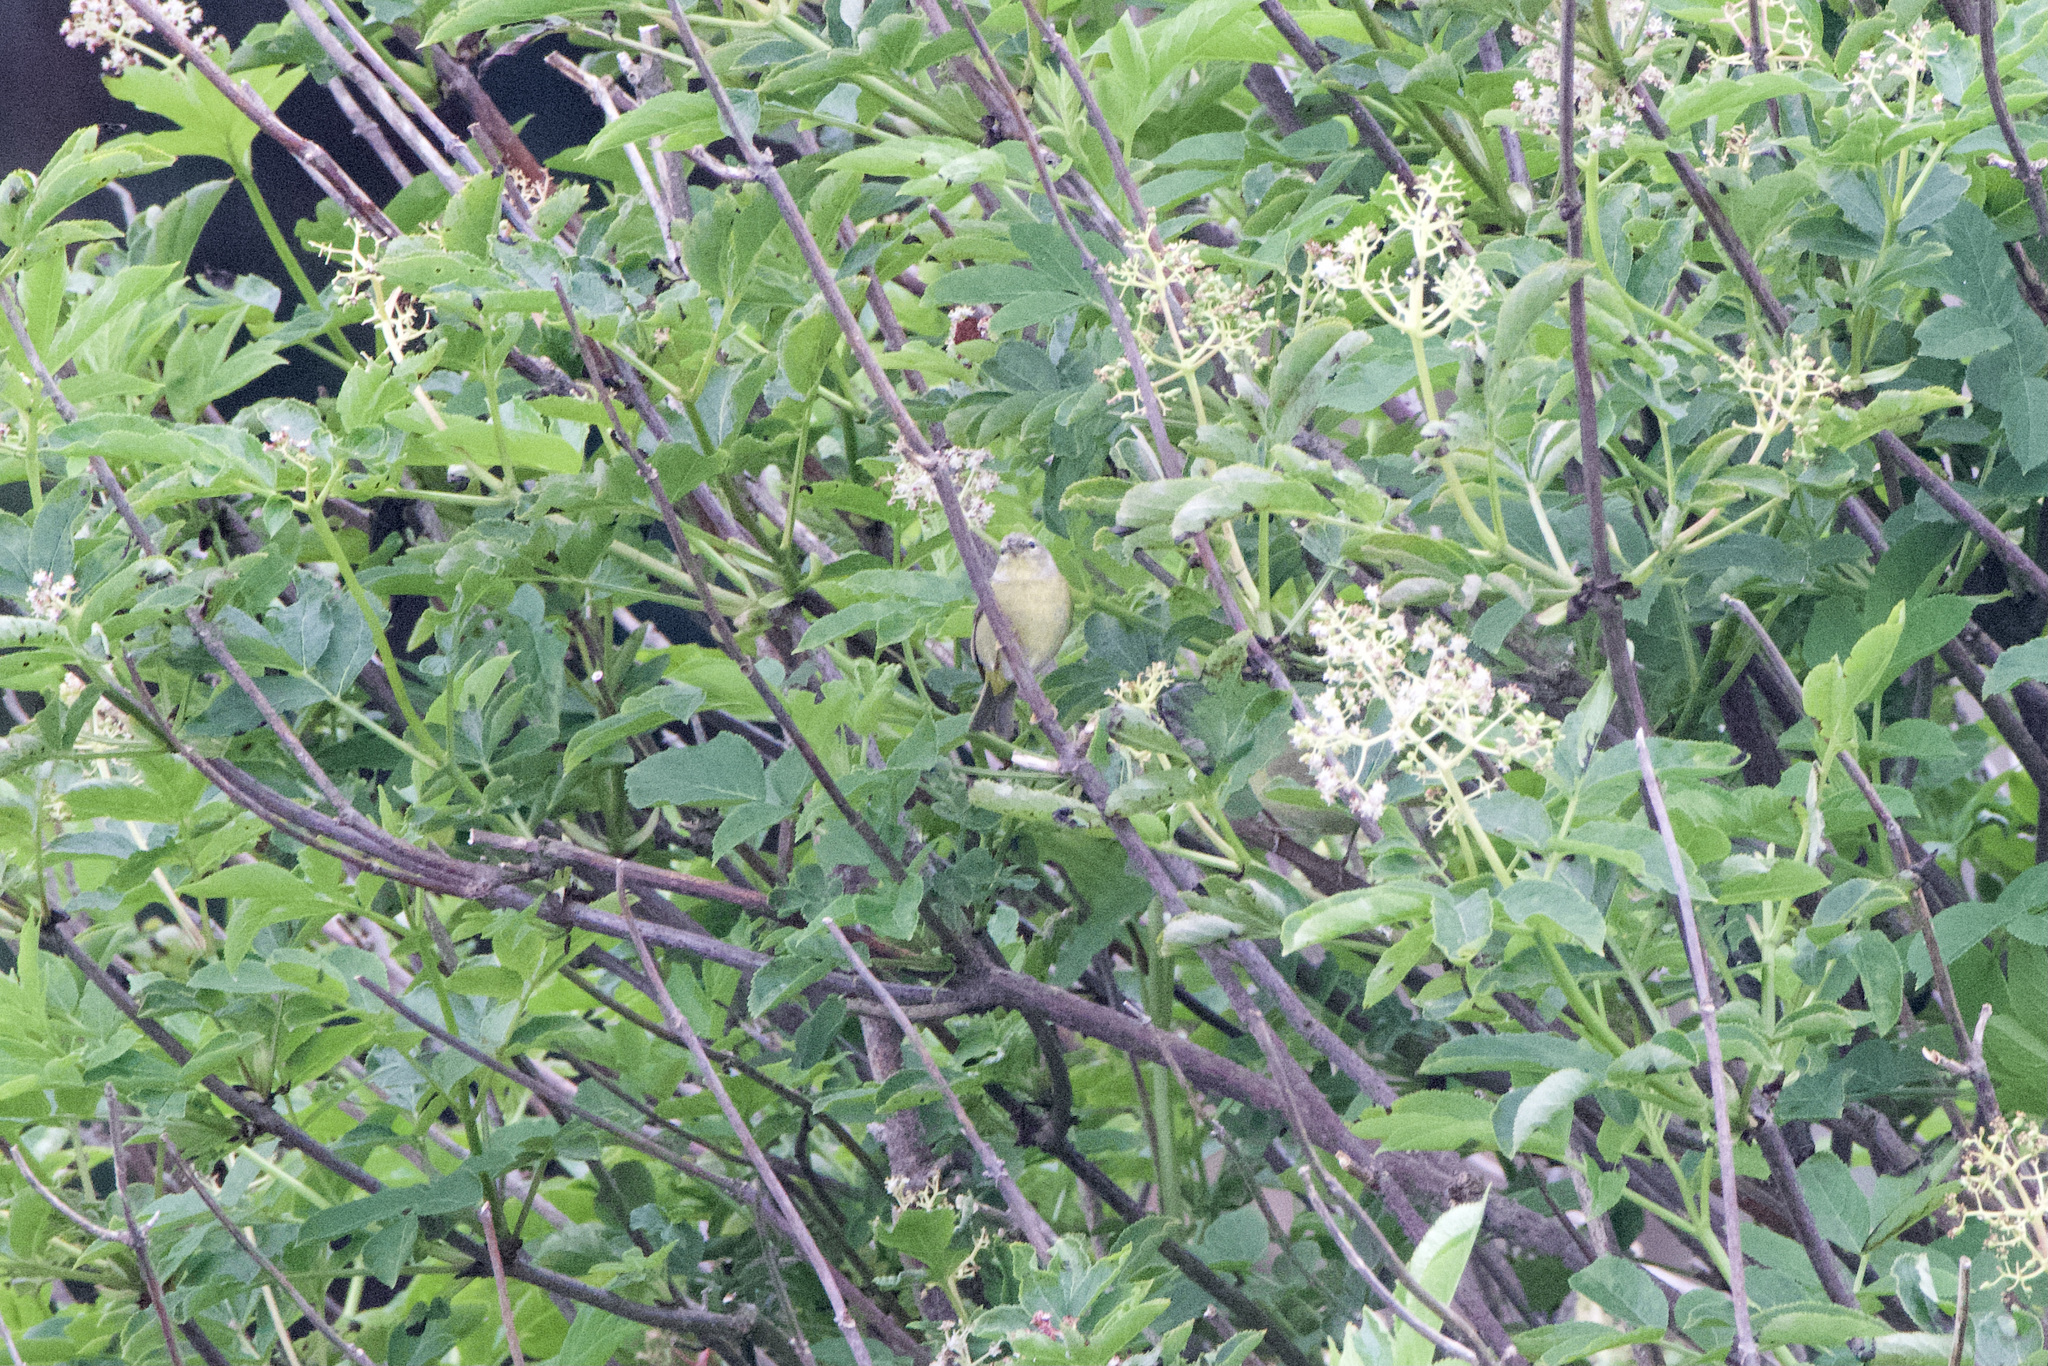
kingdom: Animalia
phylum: Chordata
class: Aves
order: Passeriformes
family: Parulidae
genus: Leiothlypis
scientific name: Leiothlypis celata
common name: Orange-crowned warbler
